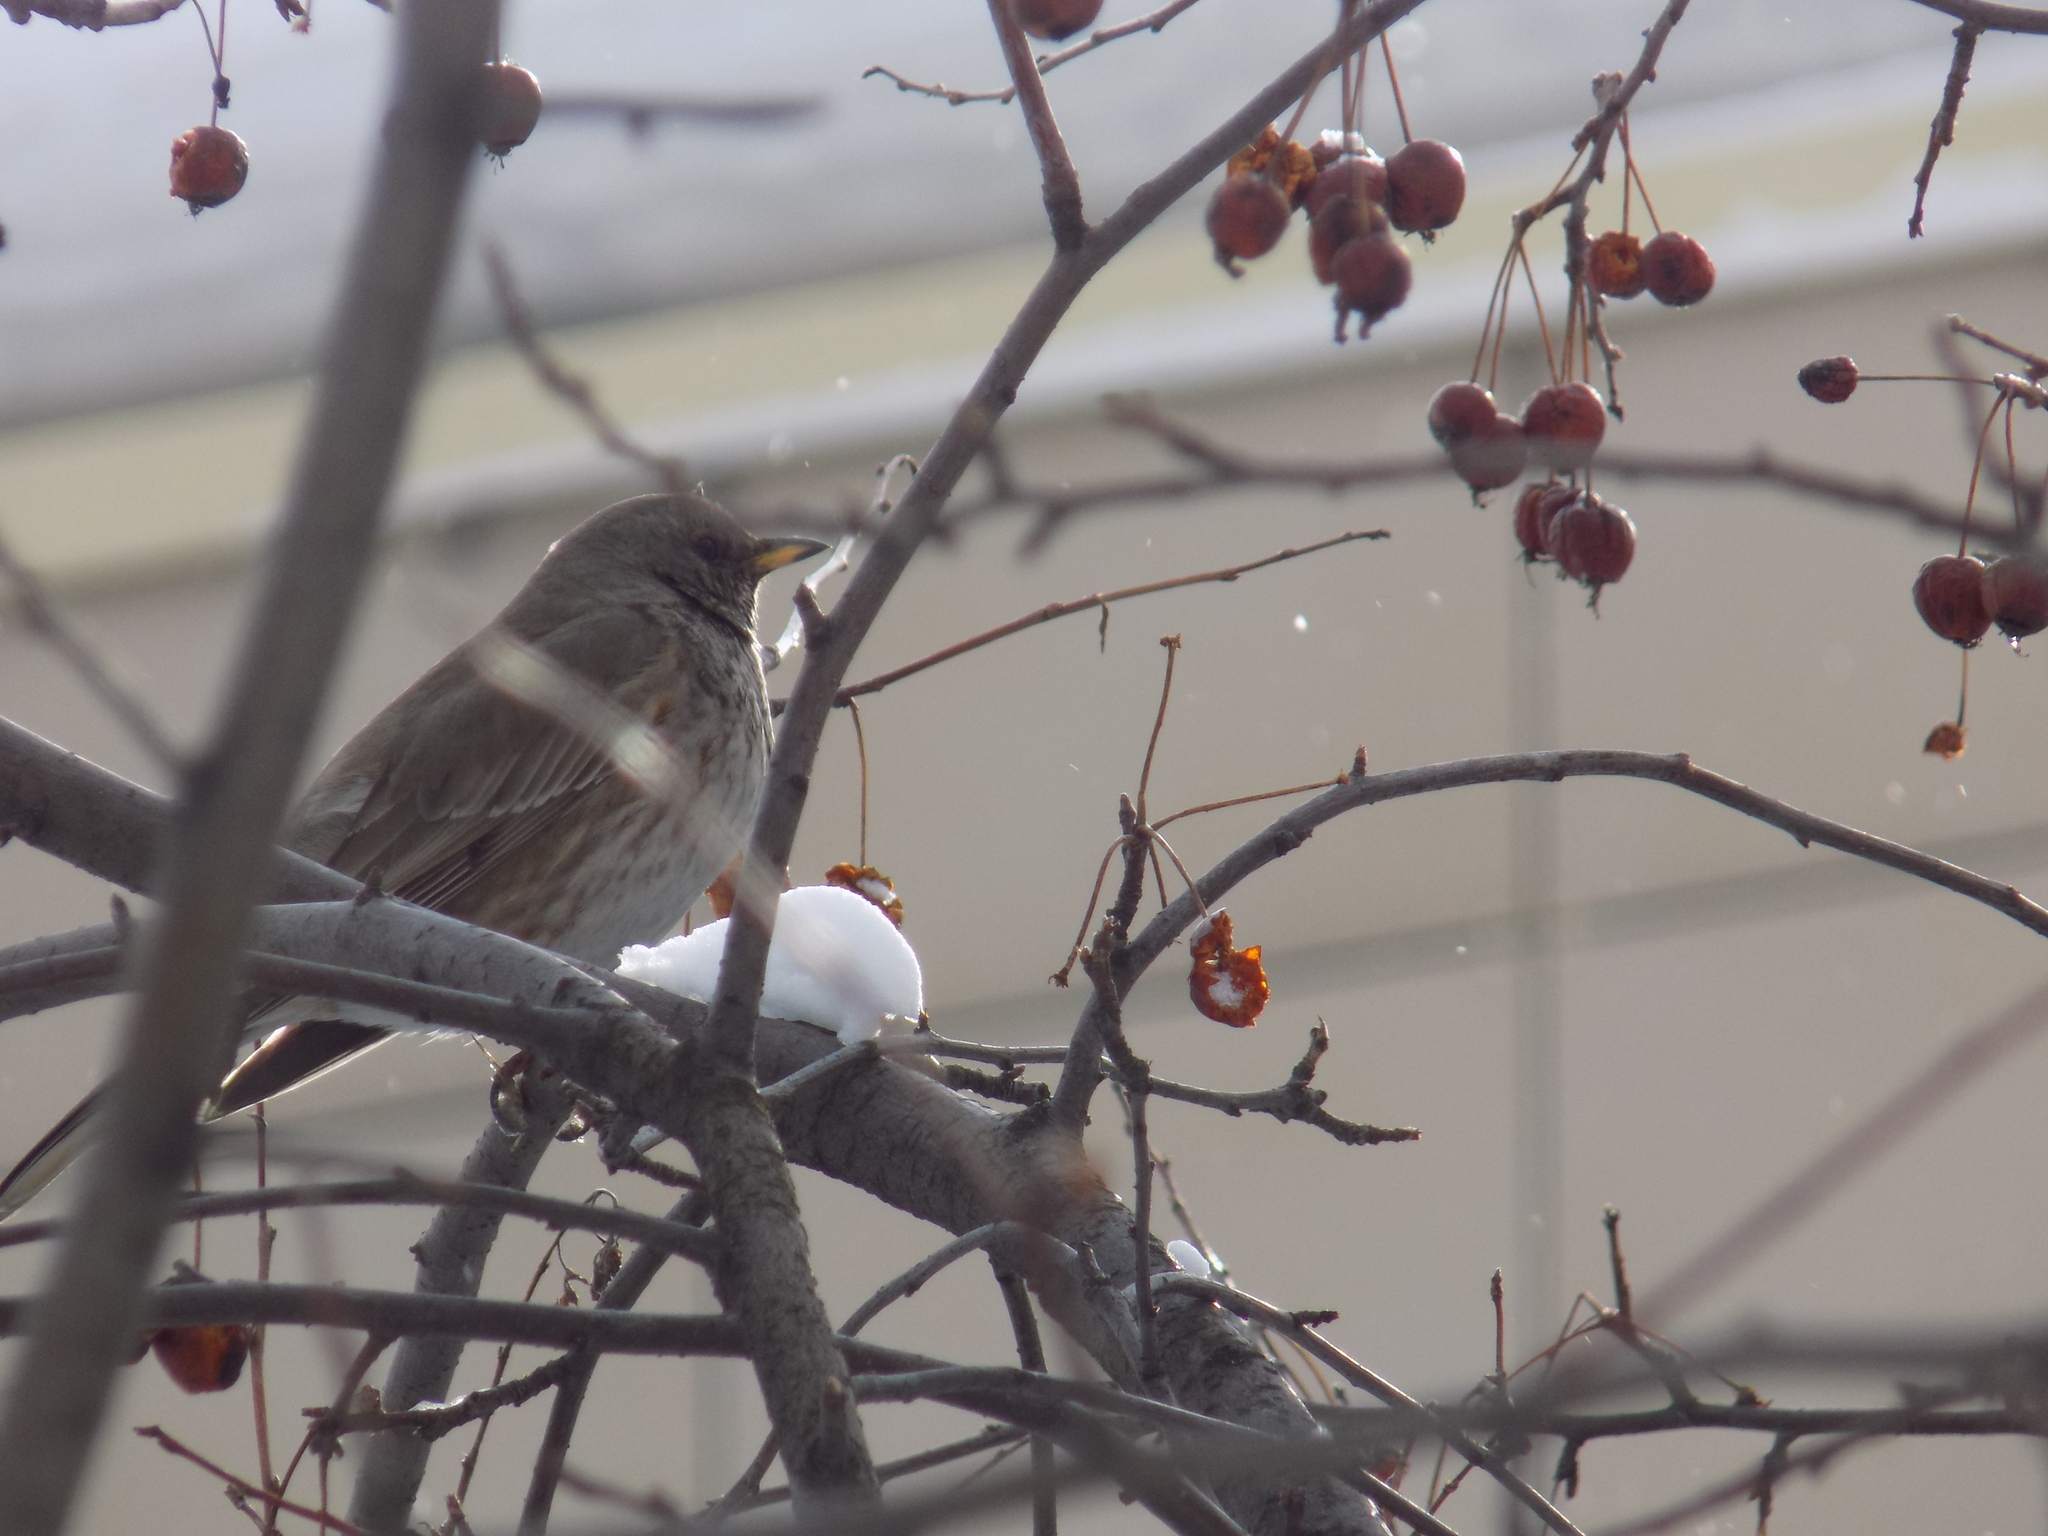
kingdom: Animalia
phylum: Chordata
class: Aves
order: Passeriformes
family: Turdidae
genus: Turdus
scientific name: Turdus atrogularis
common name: Black-throated thrush
